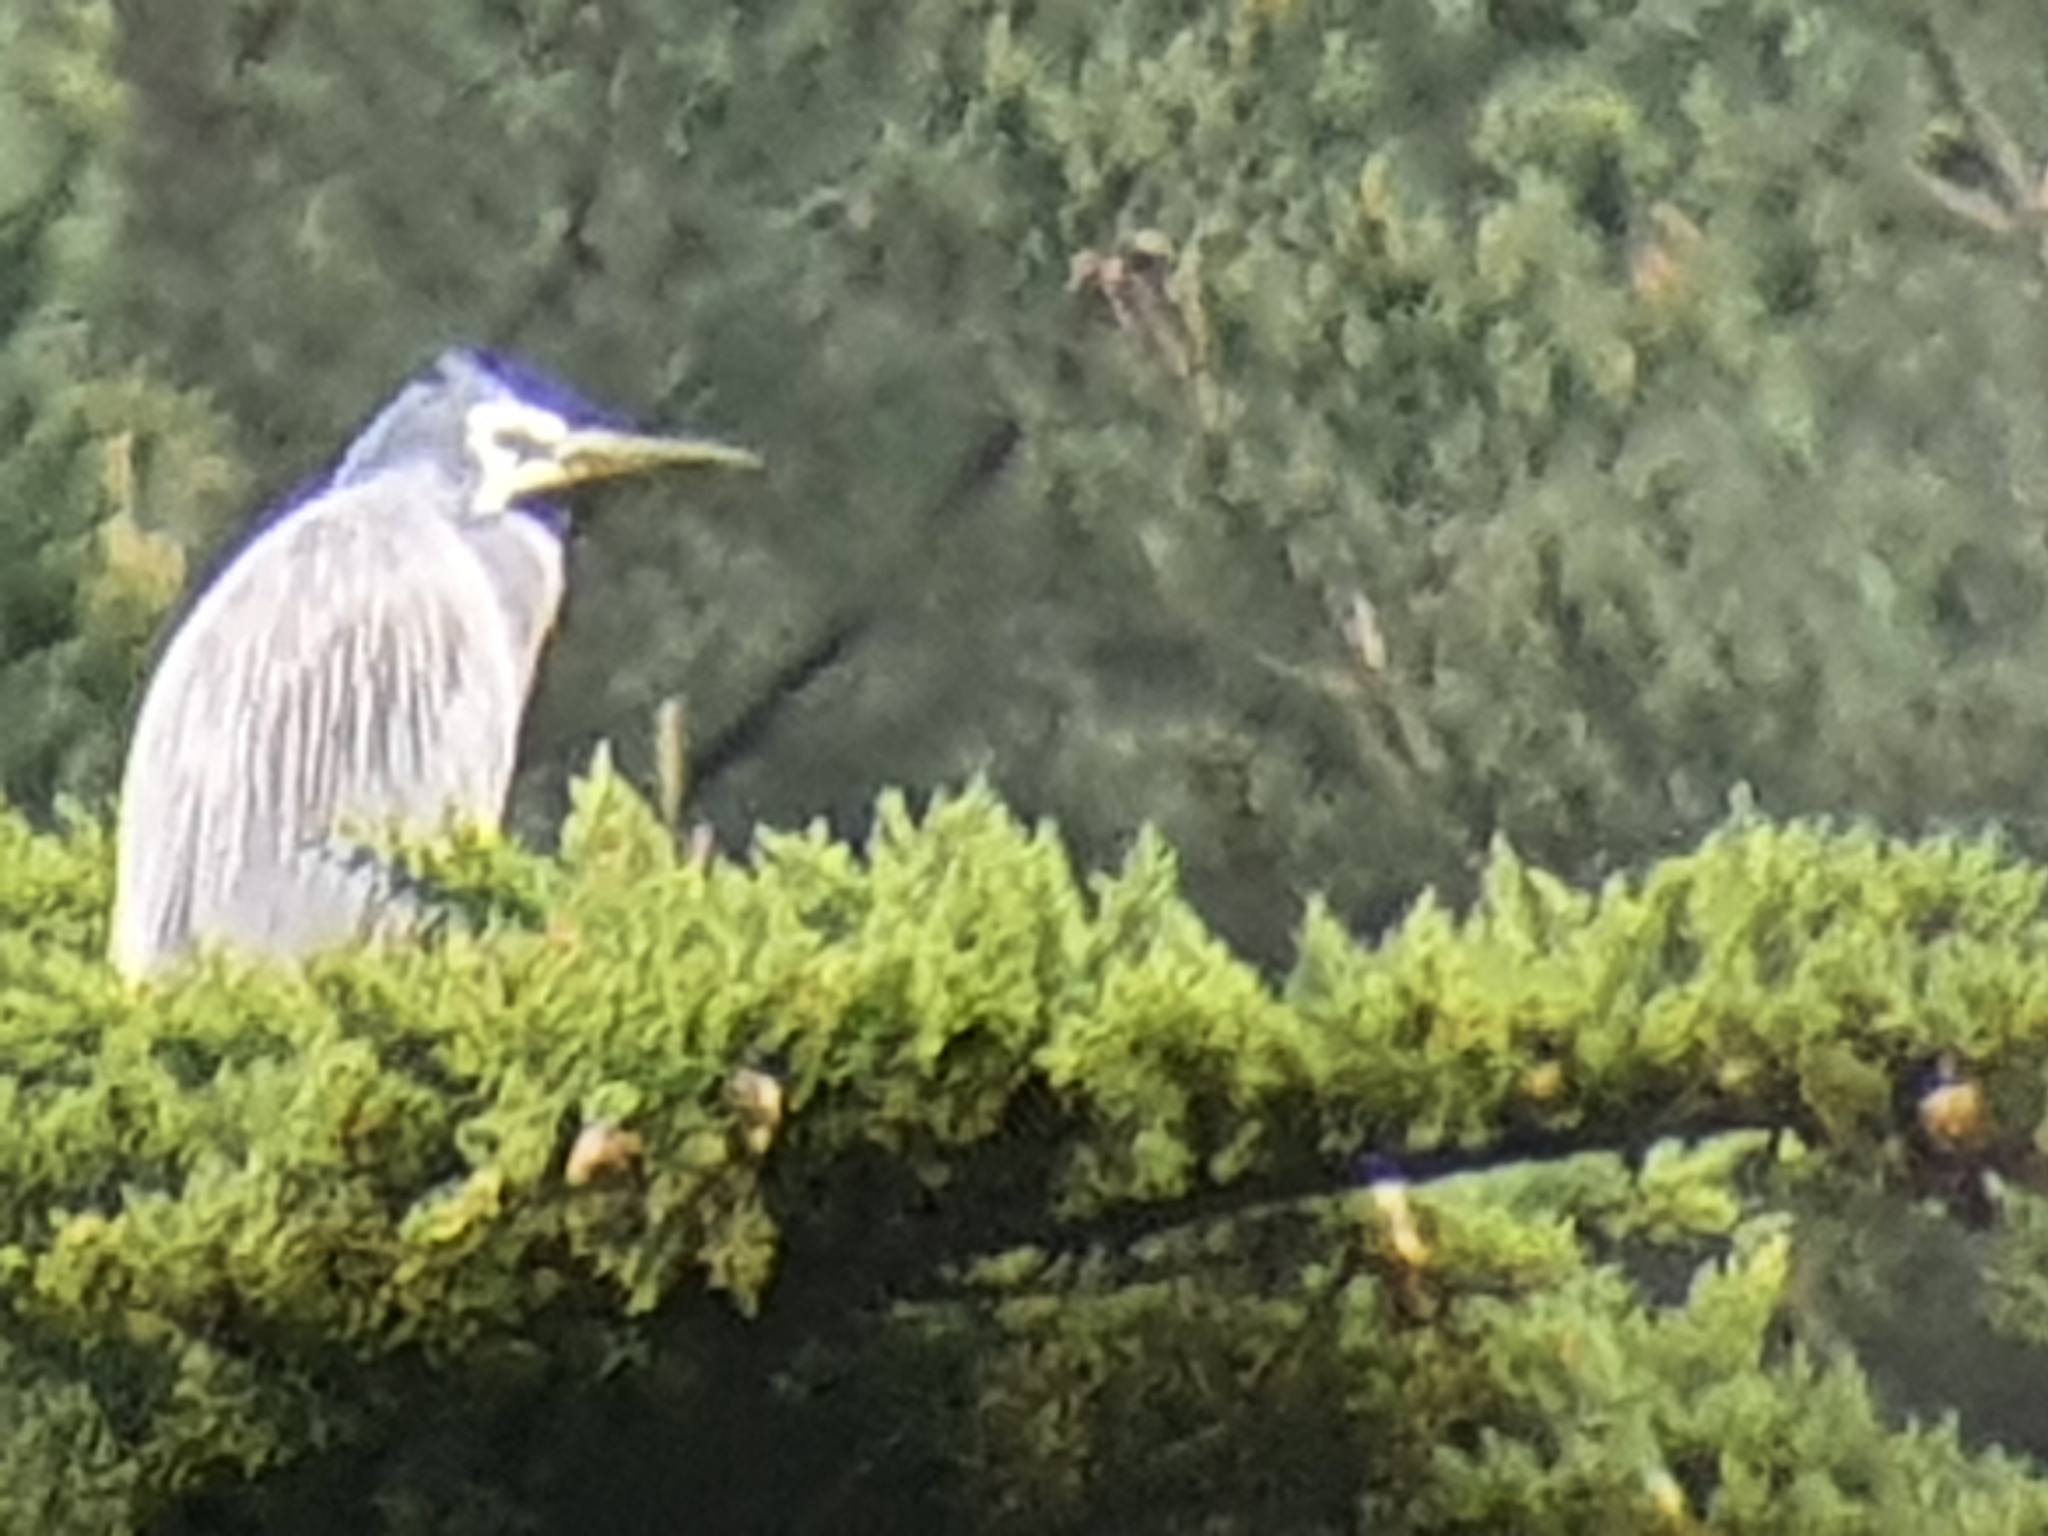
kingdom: Animalia
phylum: Chordata
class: Aves
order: Pelecaniformes
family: Ardeidae
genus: Egretta
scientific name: Egretta novaehollandiae
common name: White-faced heron
